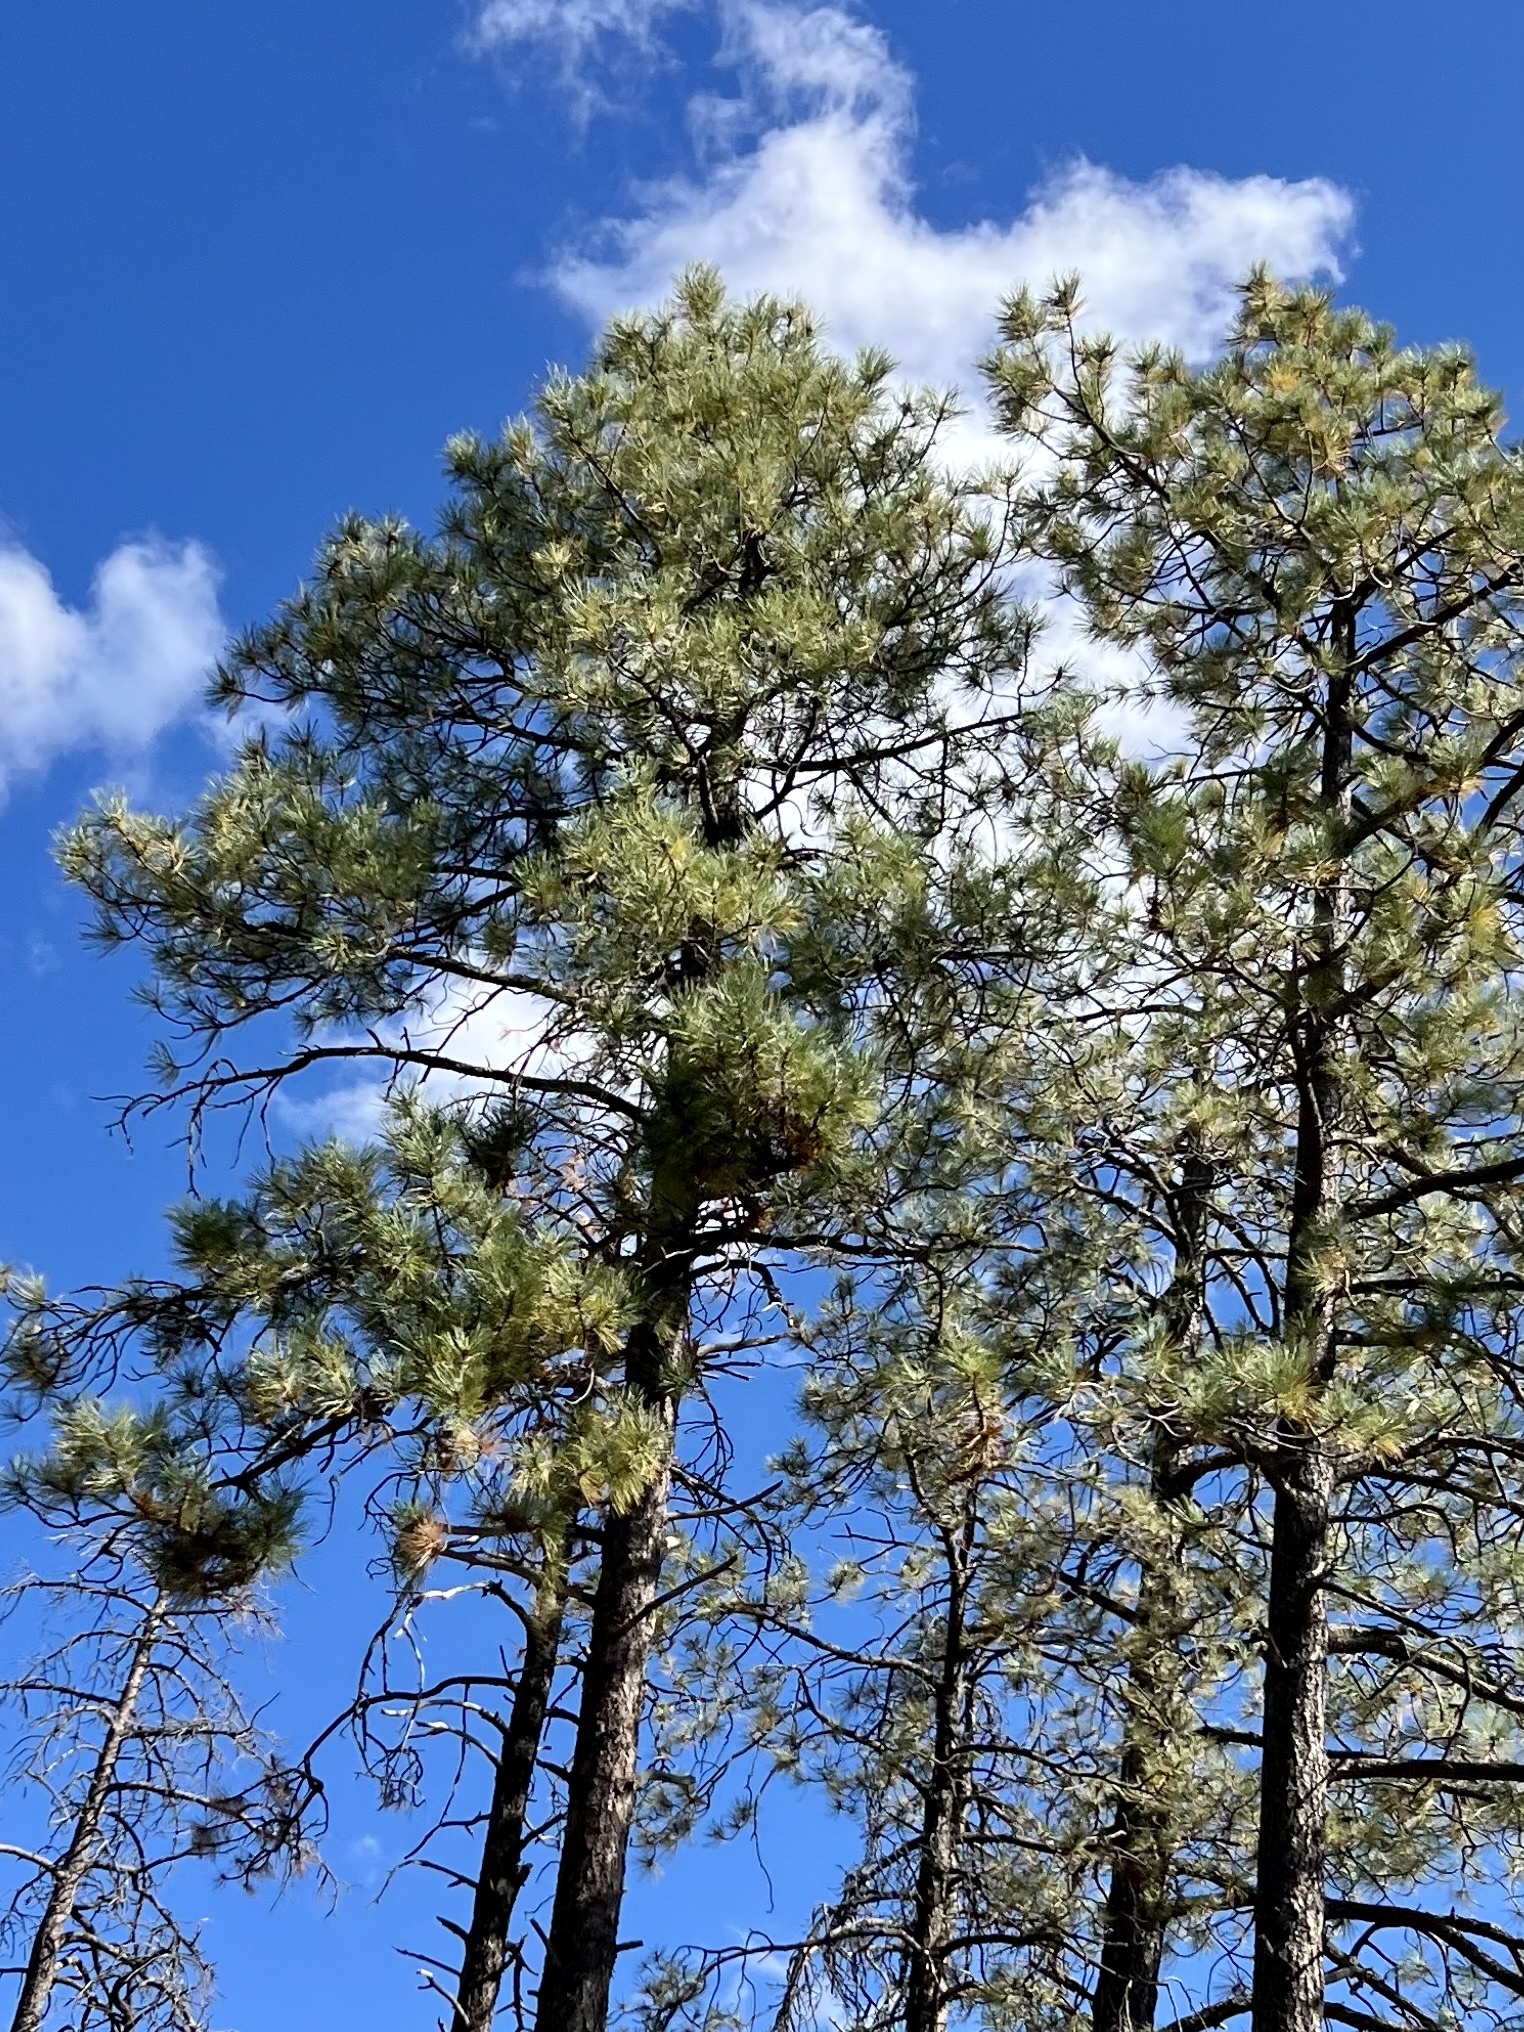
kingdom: Plantae
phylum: Tracheophyta
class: Pinopsida
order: Pinales
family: Pinaceae
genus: Pinus
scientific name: Pinus ponderosa
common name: Western yellow-pine
